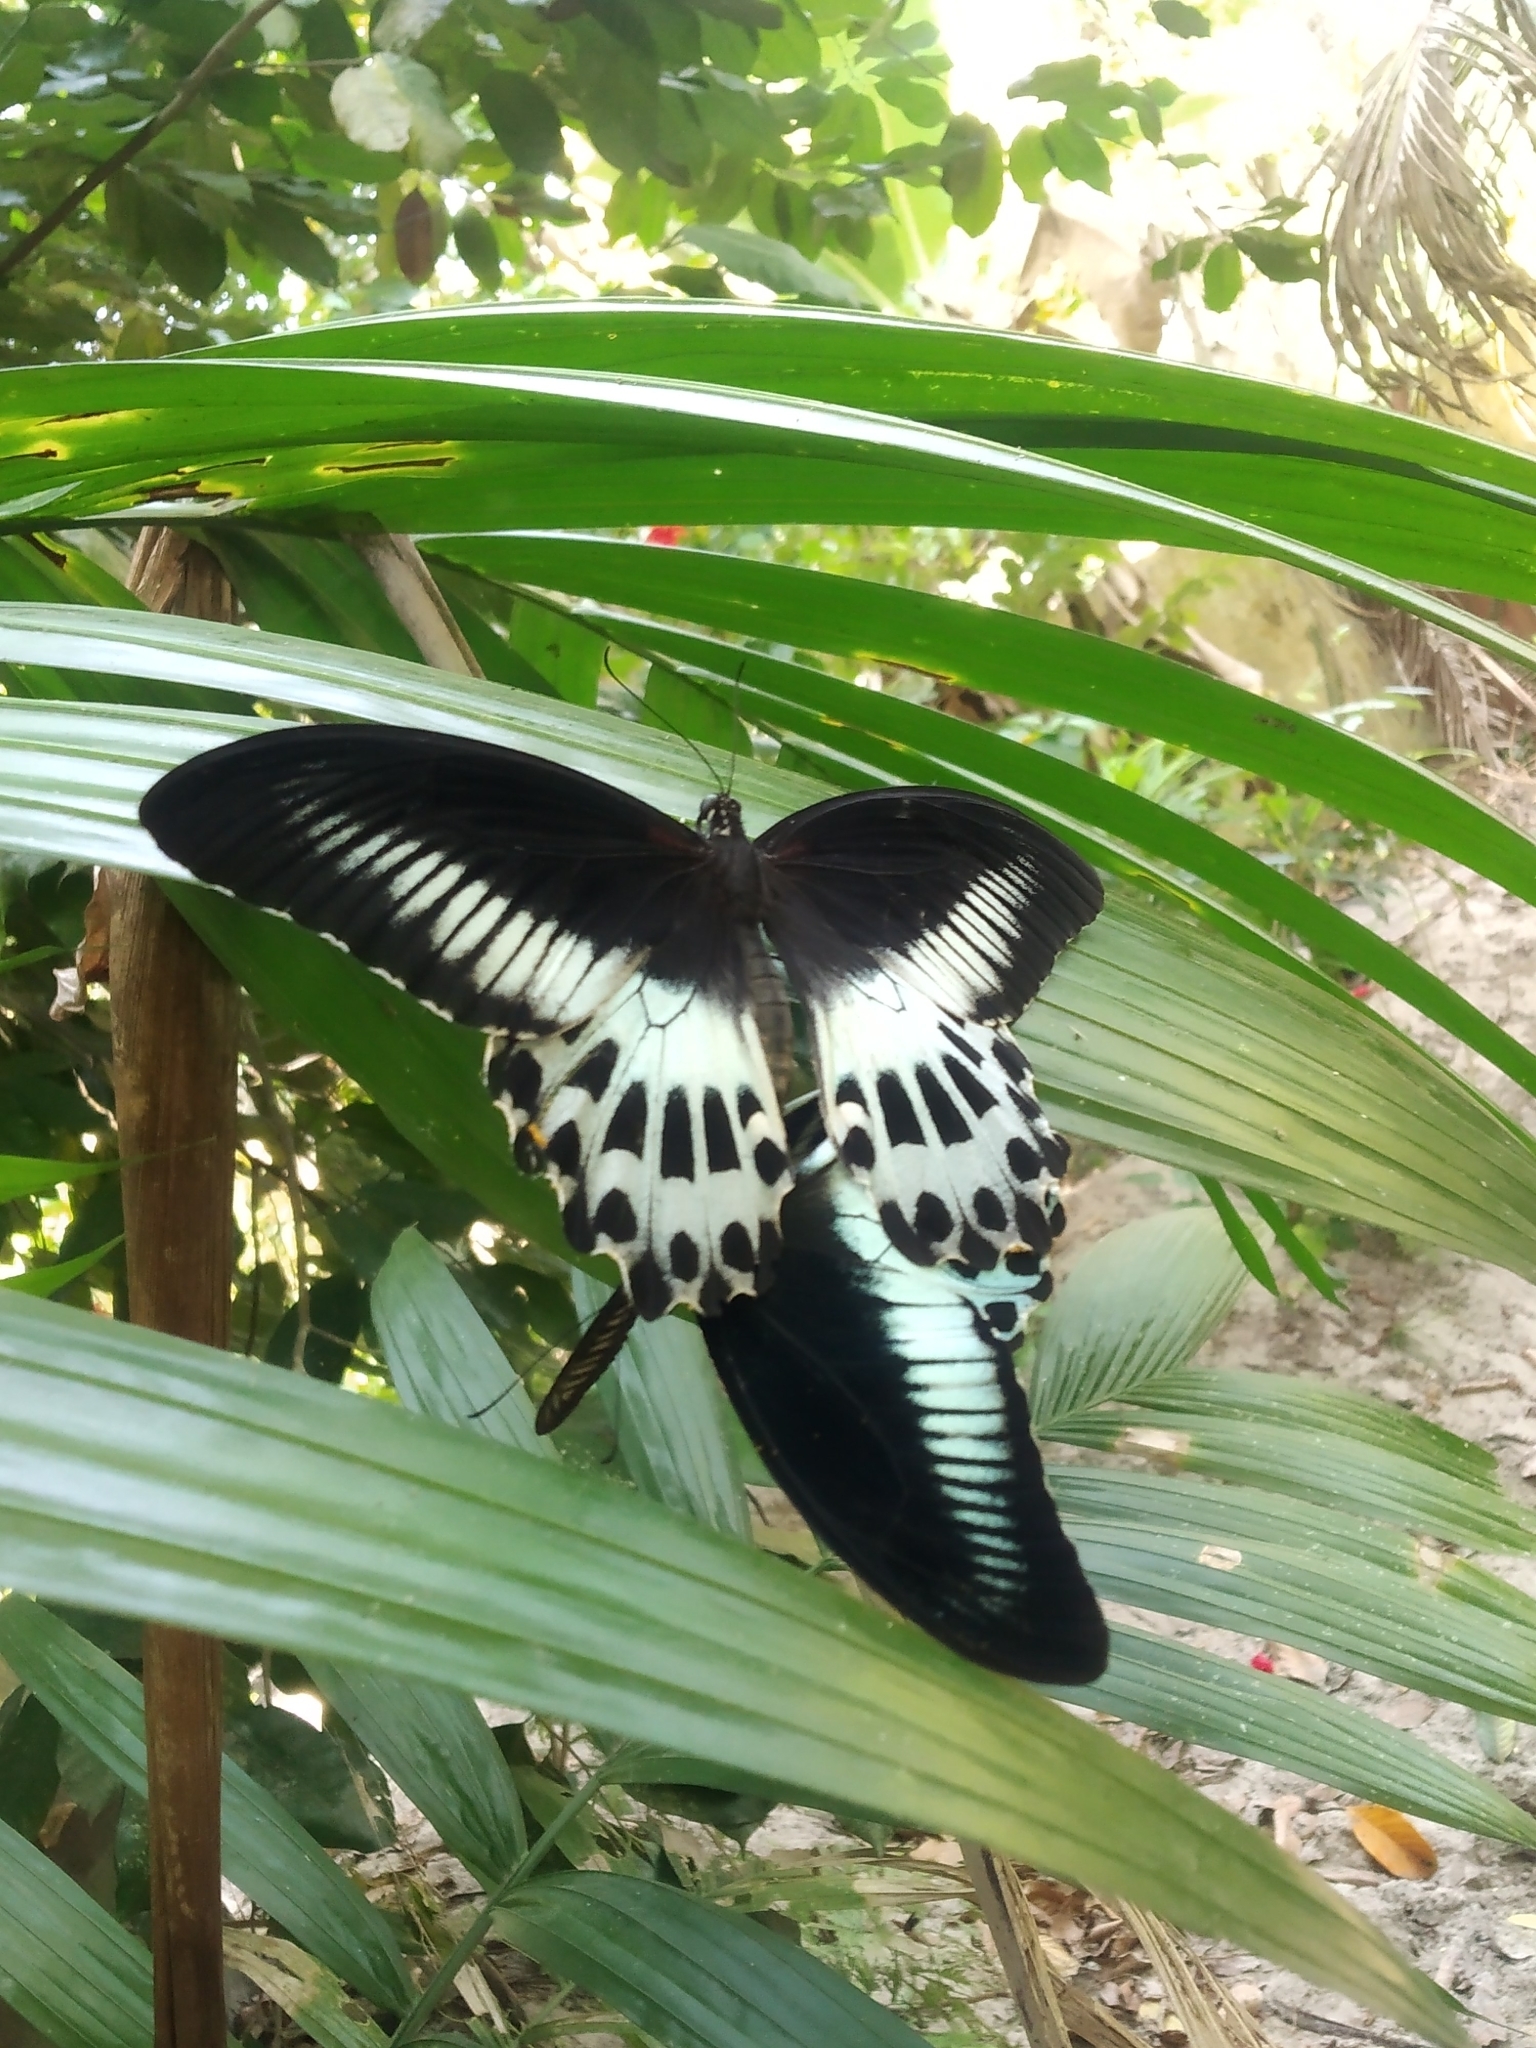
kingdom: Animalia
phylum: Arthropoda
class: Insecta
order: Lepidoptera
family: Papilionidae
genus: Papilio
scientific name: Papilio memnon
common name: Great mormon
